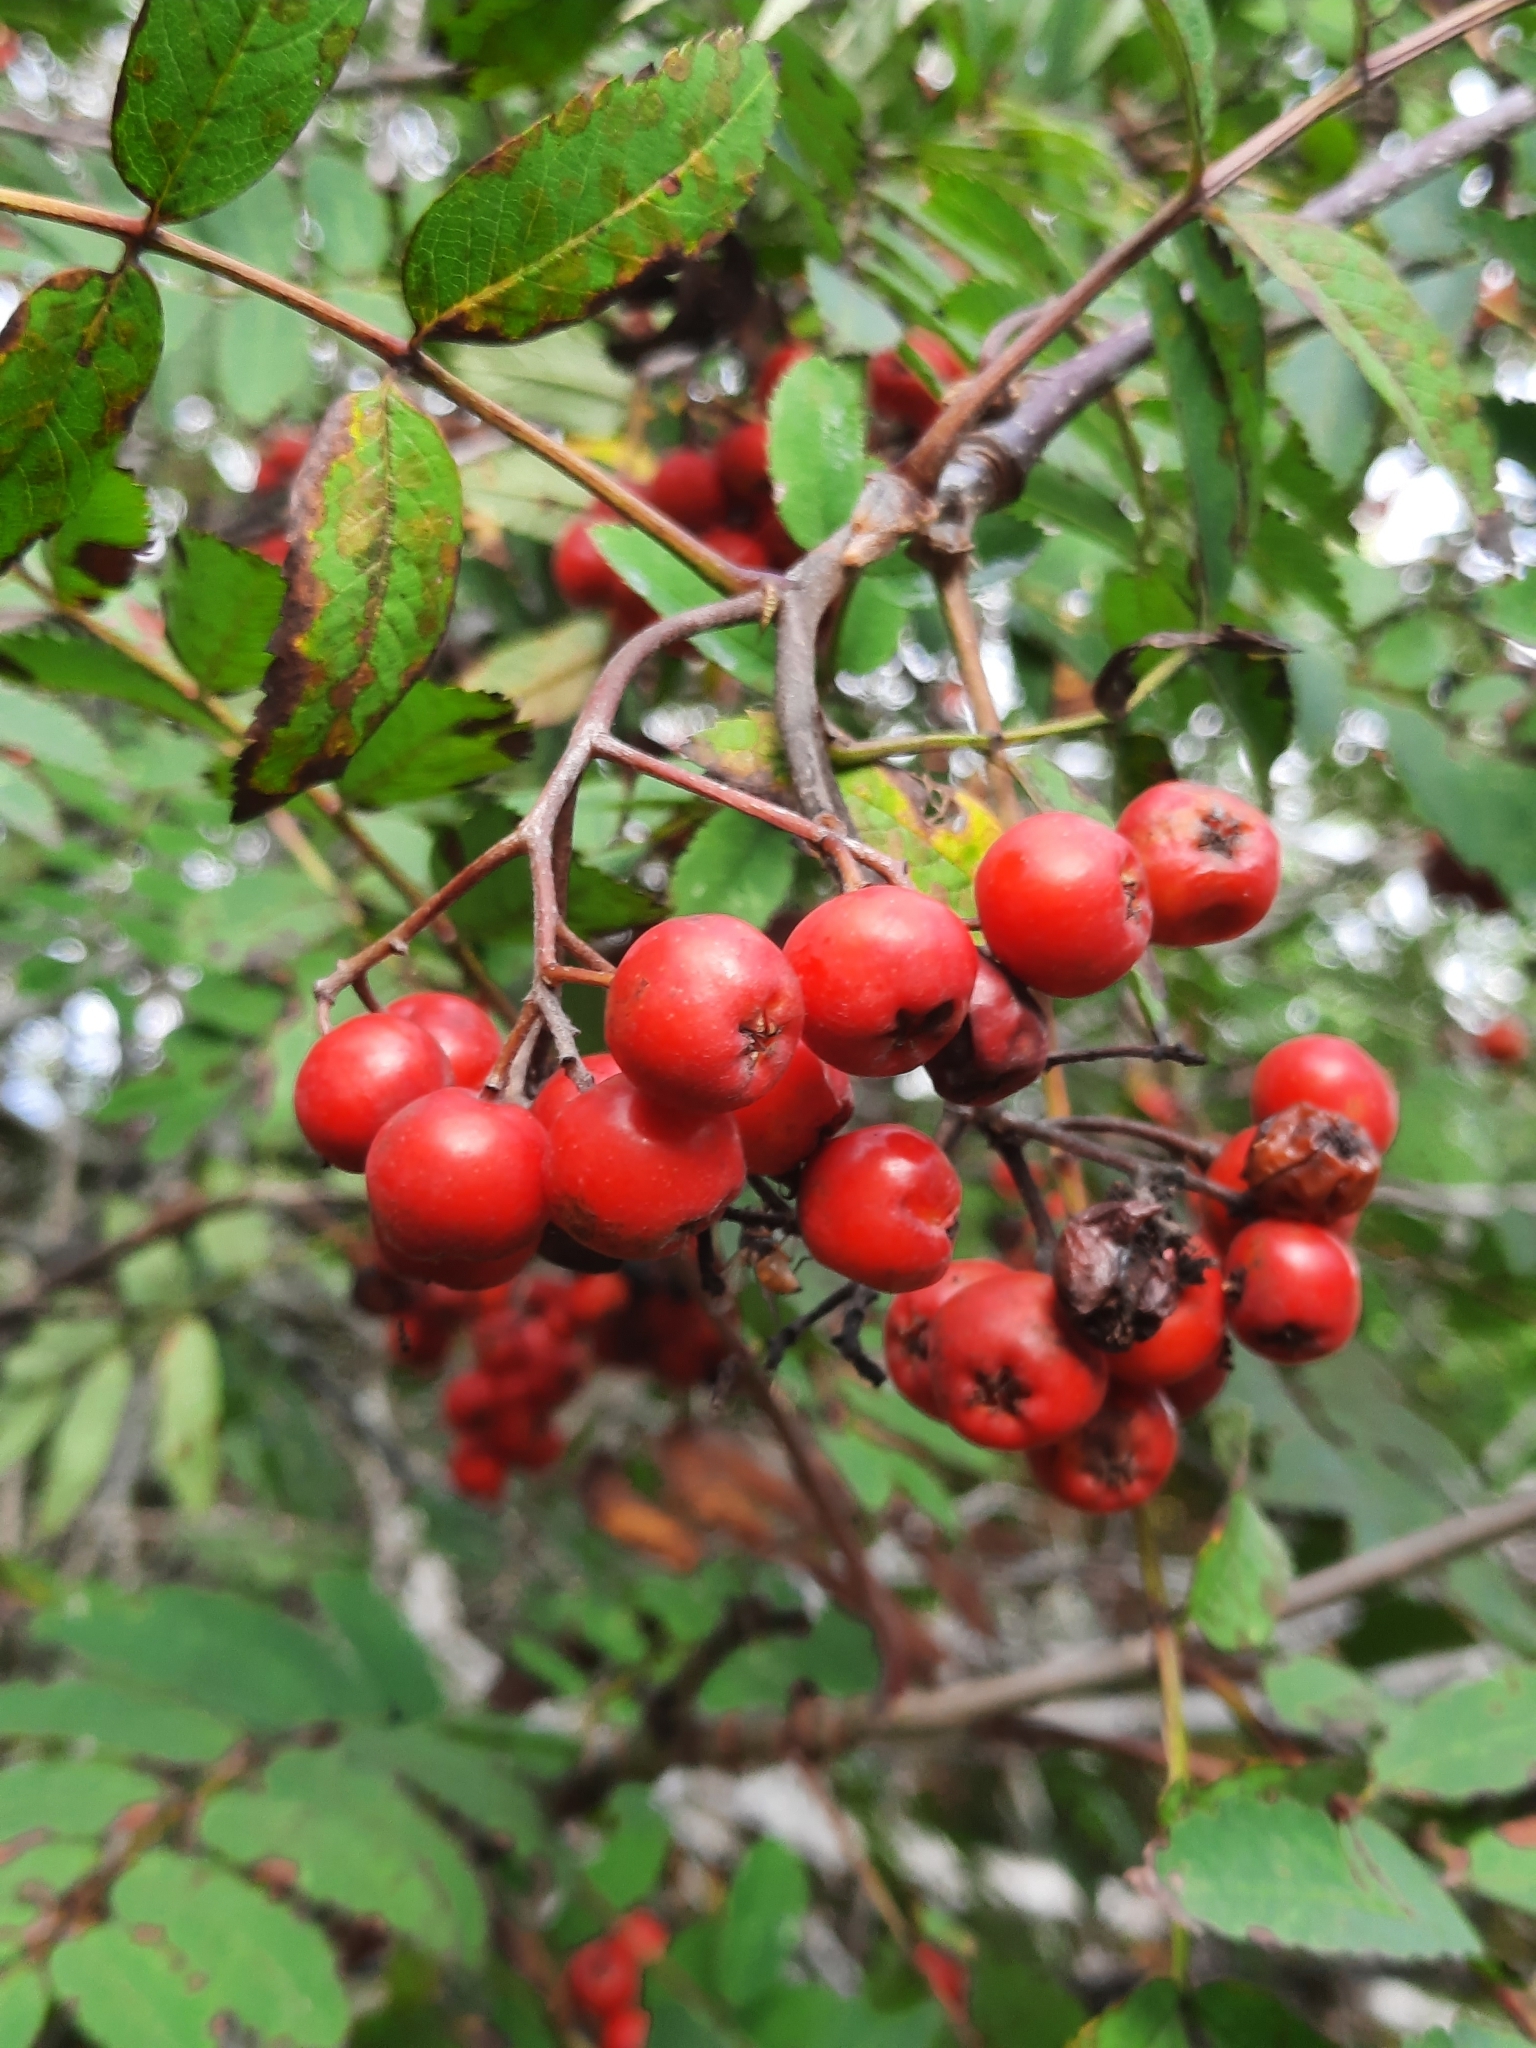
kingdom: Plantae
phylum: Tracheophyta
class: Magnoliopsida
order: Rosales
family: Rosaceae
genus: Sorbus
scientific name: Sorbus aucuparia
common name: Rowan
